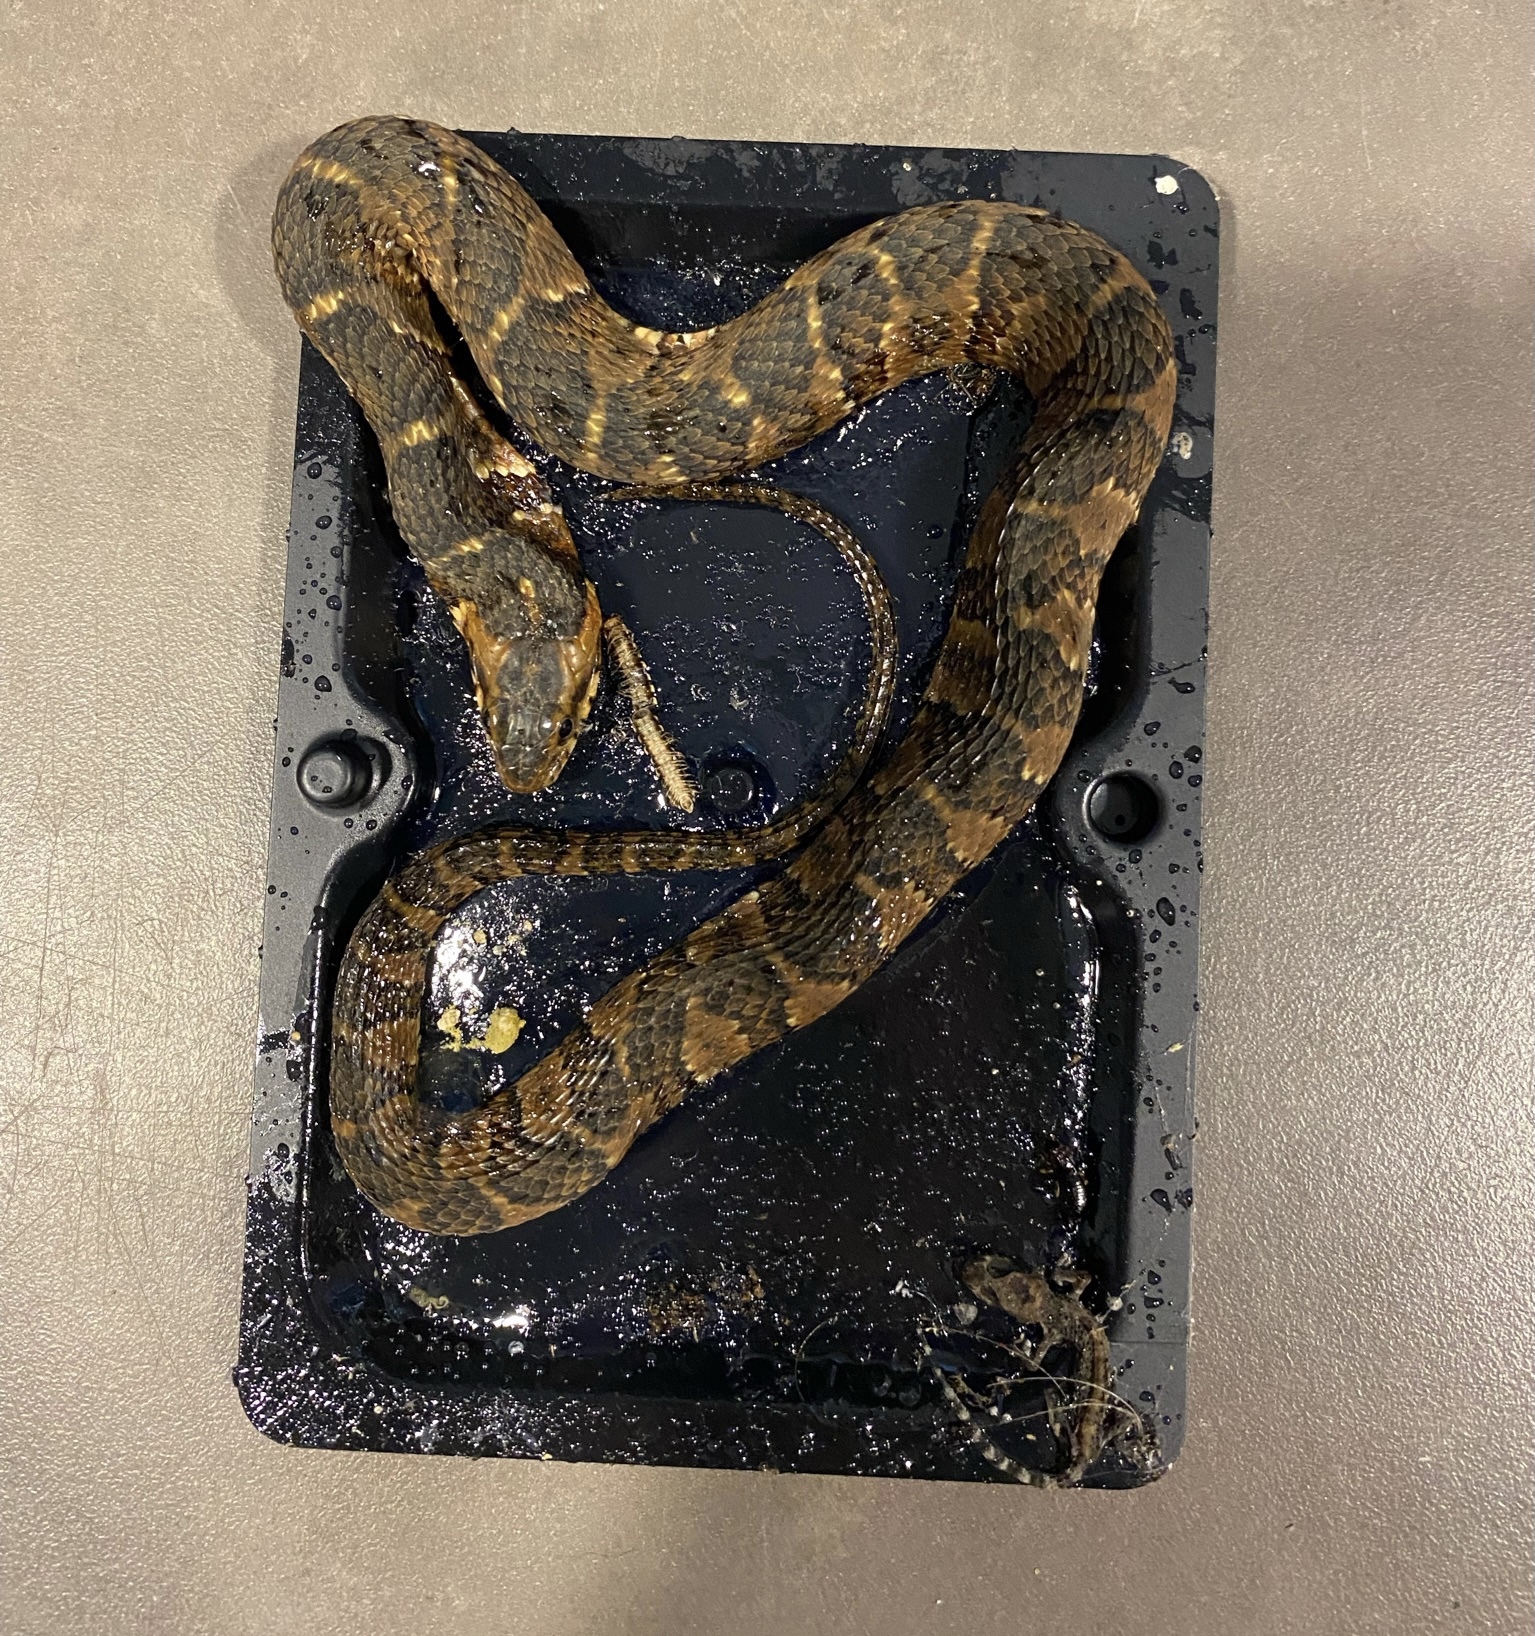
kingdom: Animalia
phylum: Chordata
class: Squamata
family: Colubridae
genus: Nerodia
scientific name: Nerodia fasciata
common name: Southern water snake
